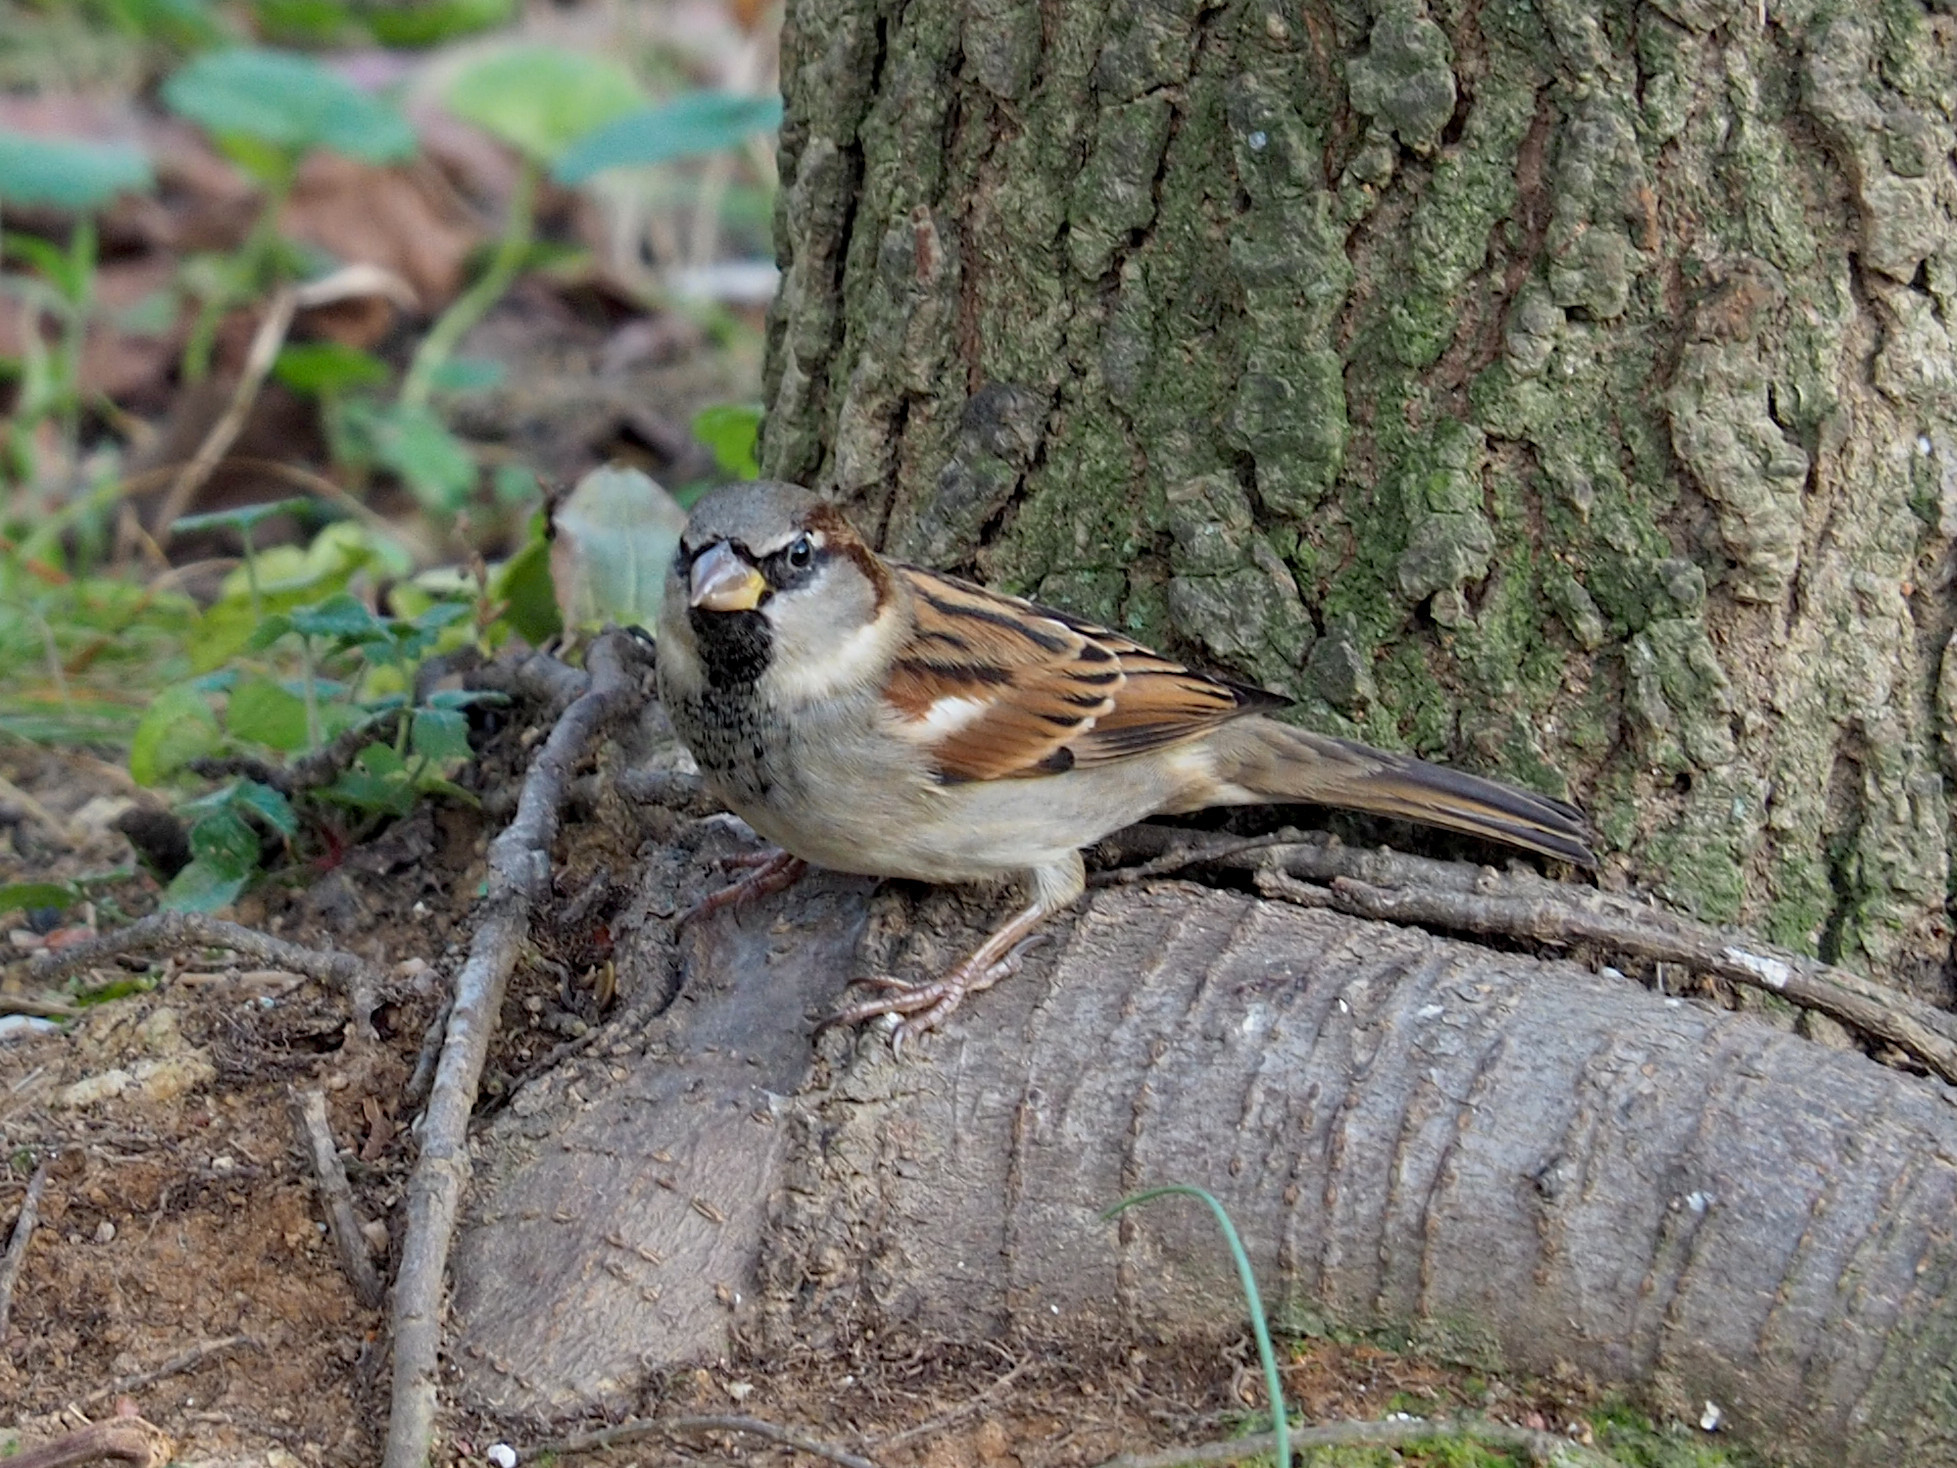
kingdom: Animalia
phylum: Chordata
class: Aves
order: Passeriformes
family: Passeridae
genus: Passer
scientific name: Passer domesticus
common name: House sparrow
